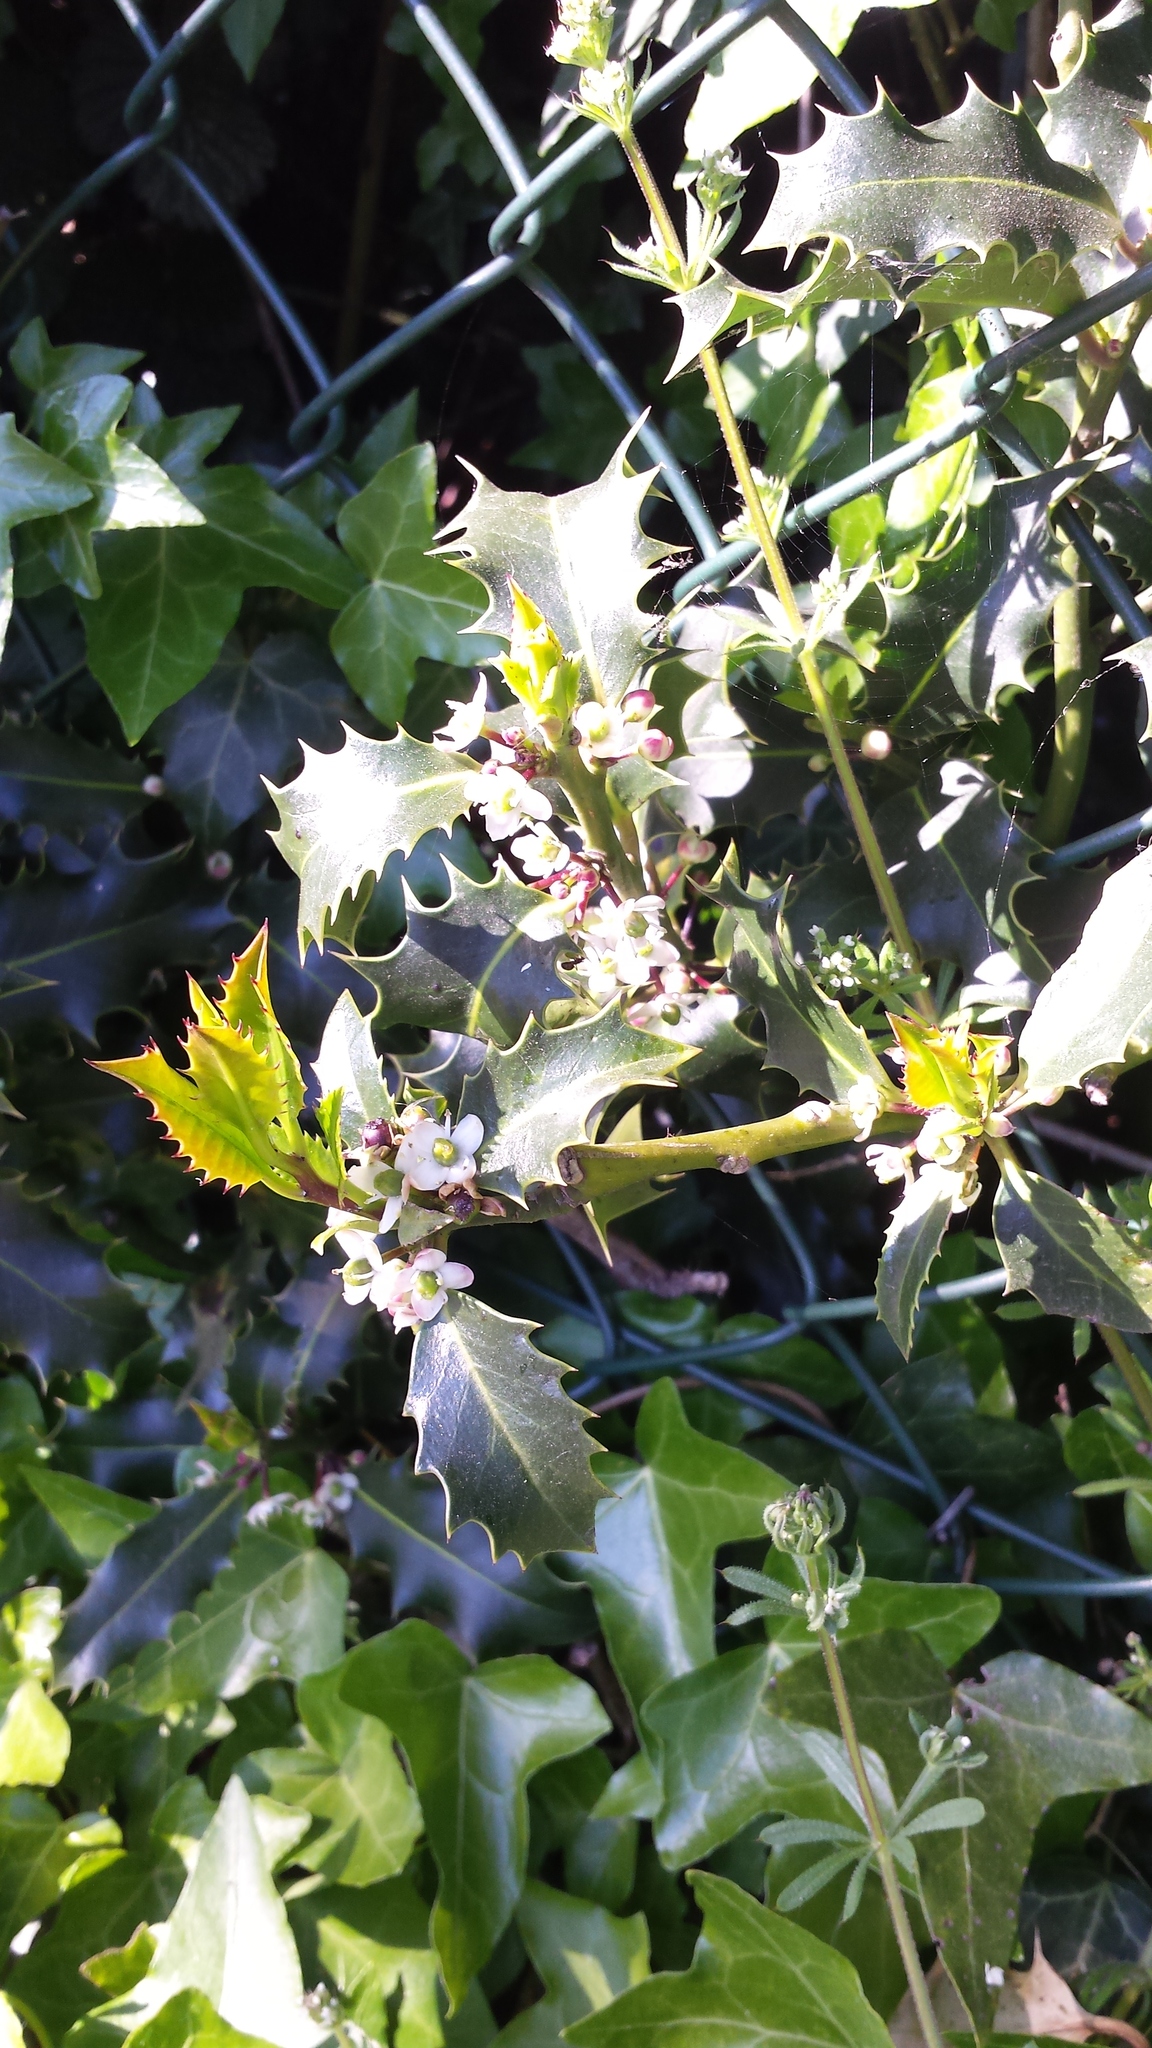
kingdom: Plantae
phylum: Tracheophyta
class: Magnoliopsida
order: Aquifoliales
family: Aquifoliaceae
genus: Ilex
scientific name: Ilex aquifolium
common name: English holly
